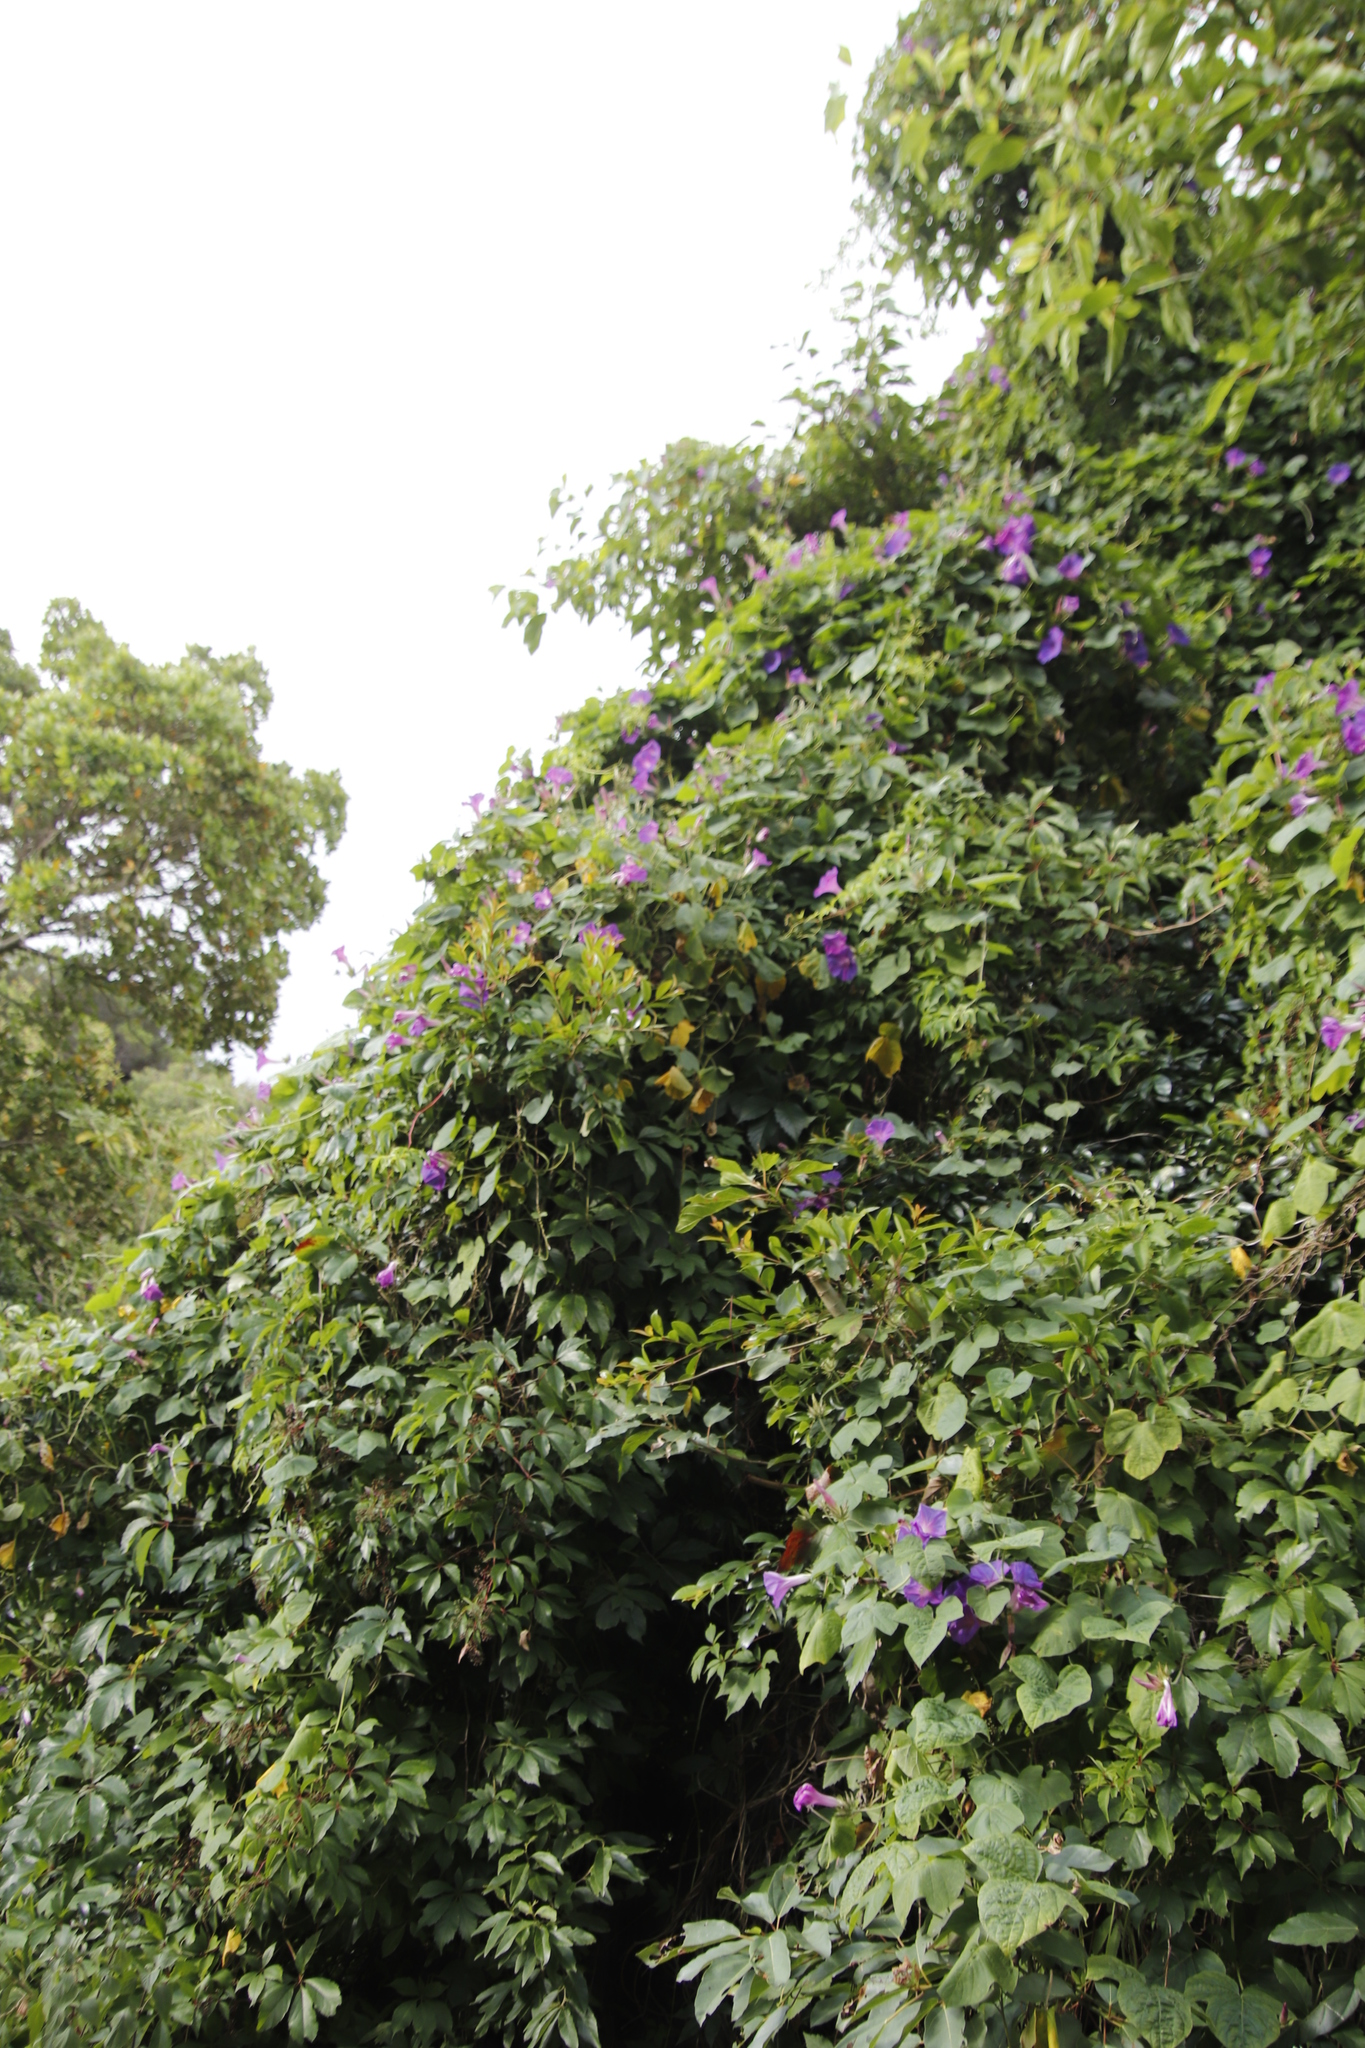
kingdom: Plantae
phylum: Tracheophyta
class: Magnoliopsida
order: Solanales
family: Convolvulaceae
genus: Ipomoea
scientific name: Ipomoea indica
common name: Blue dawnflower
